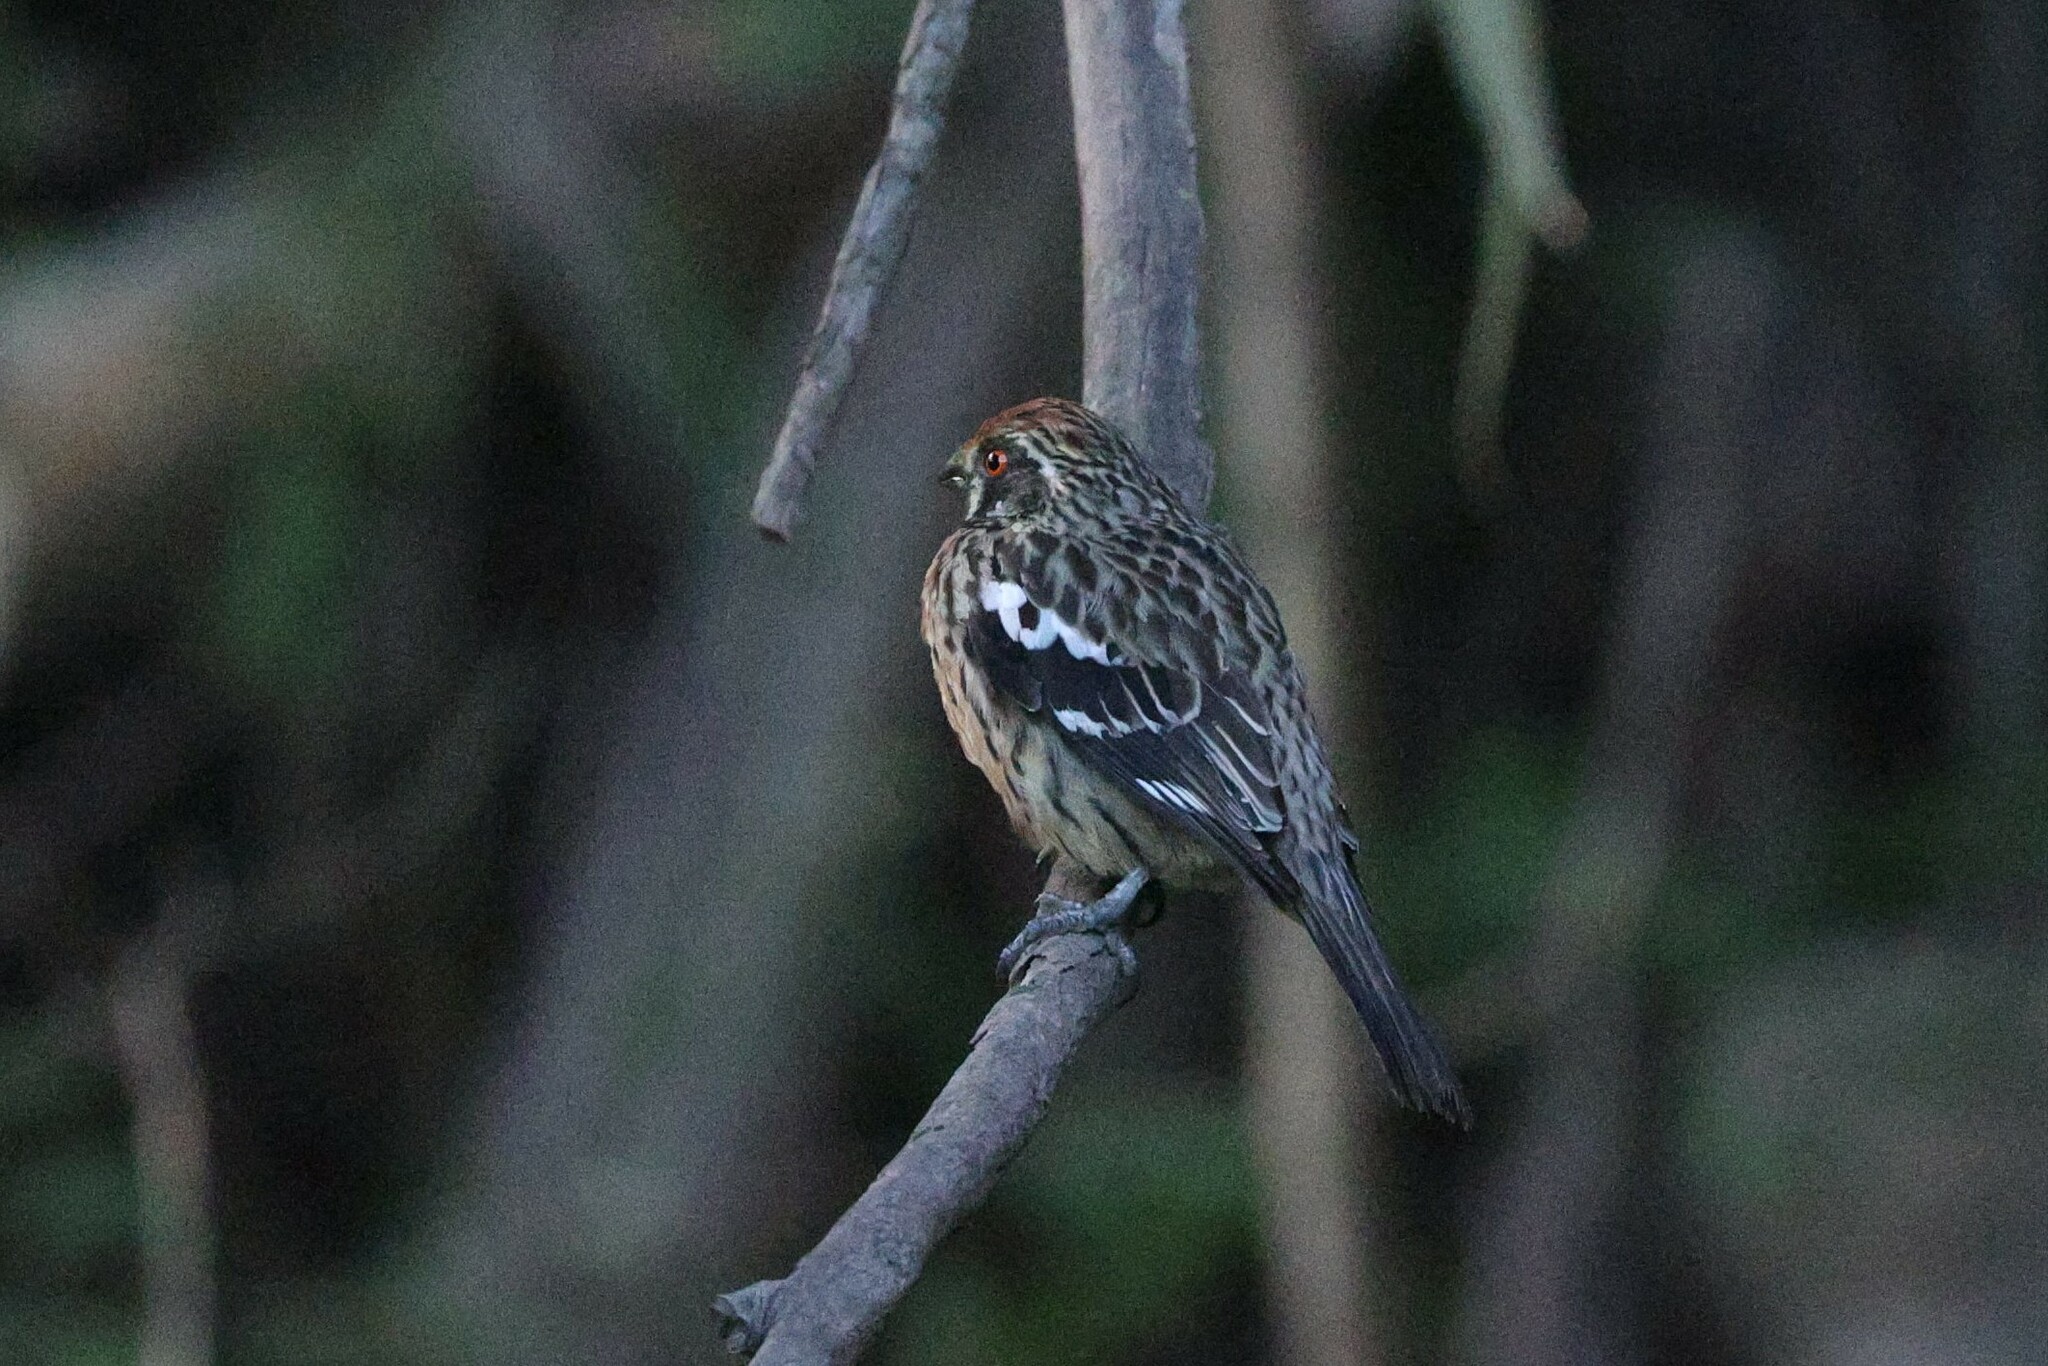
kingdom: Animalia
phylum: Chordata
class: Aves
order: Passeriformes
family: Cotingidae
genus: Phytotoma
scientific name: Phytotoma rara
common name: Rufous-tailed plantcutter
